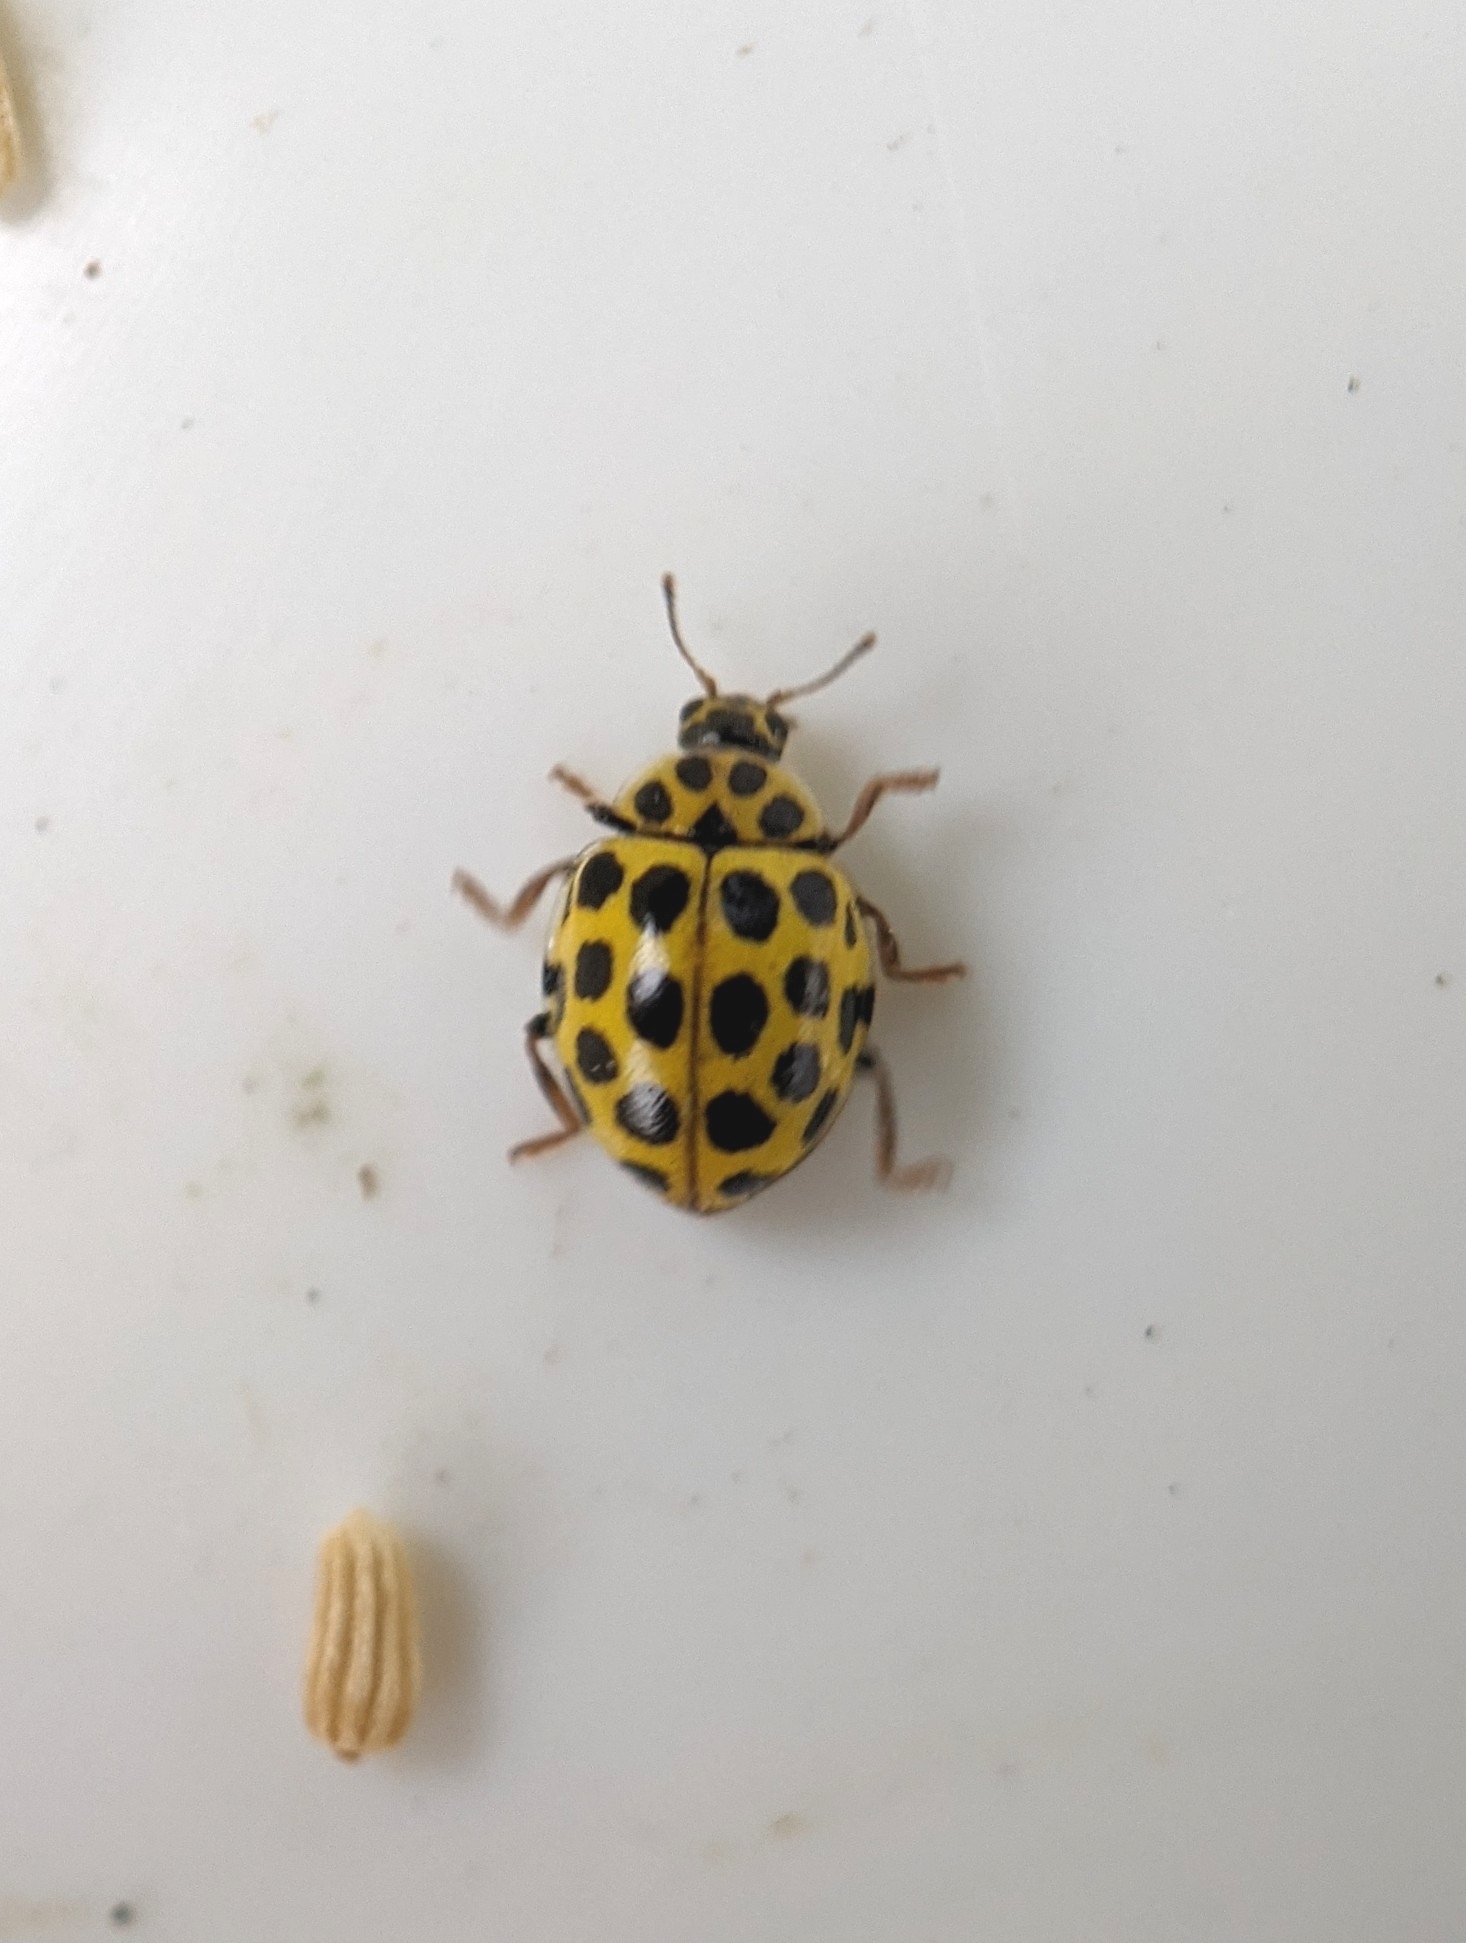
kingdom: Animalia
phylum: Arthropoda
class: Insecta
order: Coleoptera
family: Coccinellidae
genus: Psyllobora
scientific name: Psyllobora vigintiduopunctata
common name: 22-spot ladybird
